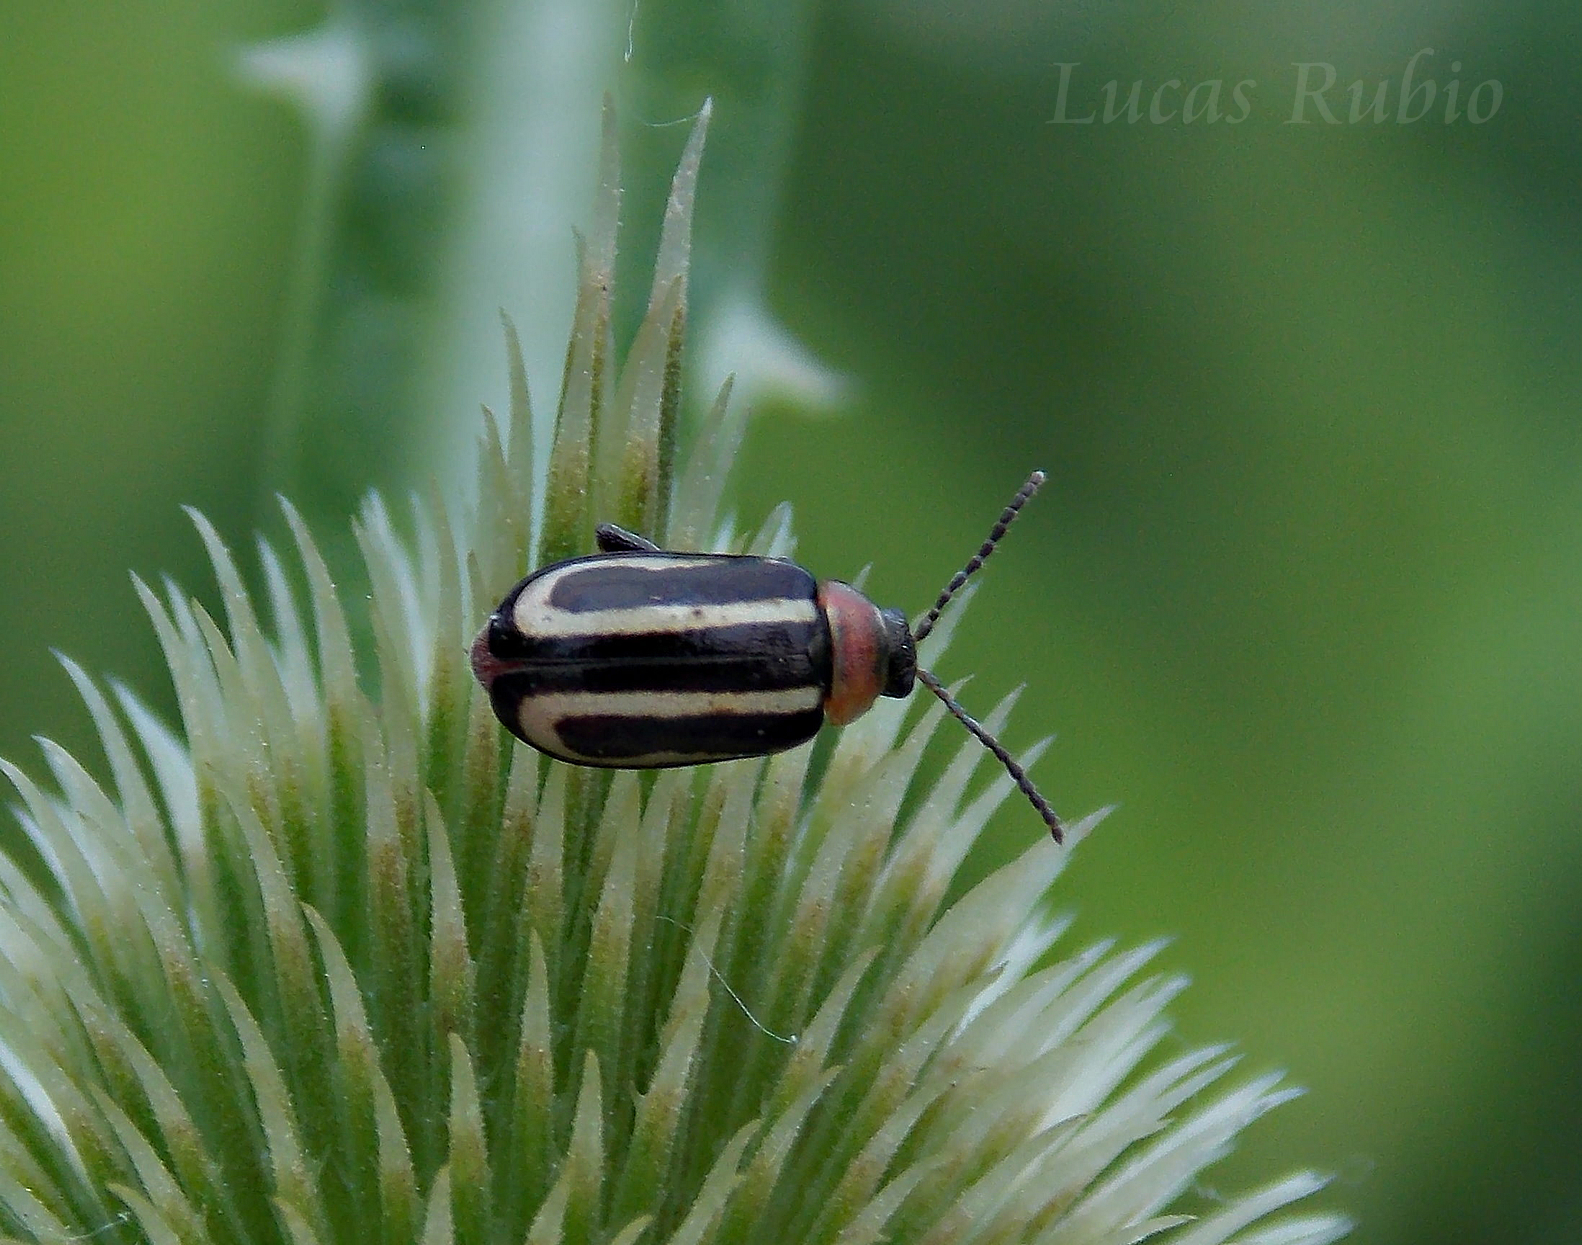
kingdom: Animalia
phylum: Arthropoda
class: Insecta
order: Coleoptera
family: Chrysomelidae
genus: Disonycha
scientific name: Disonycha
